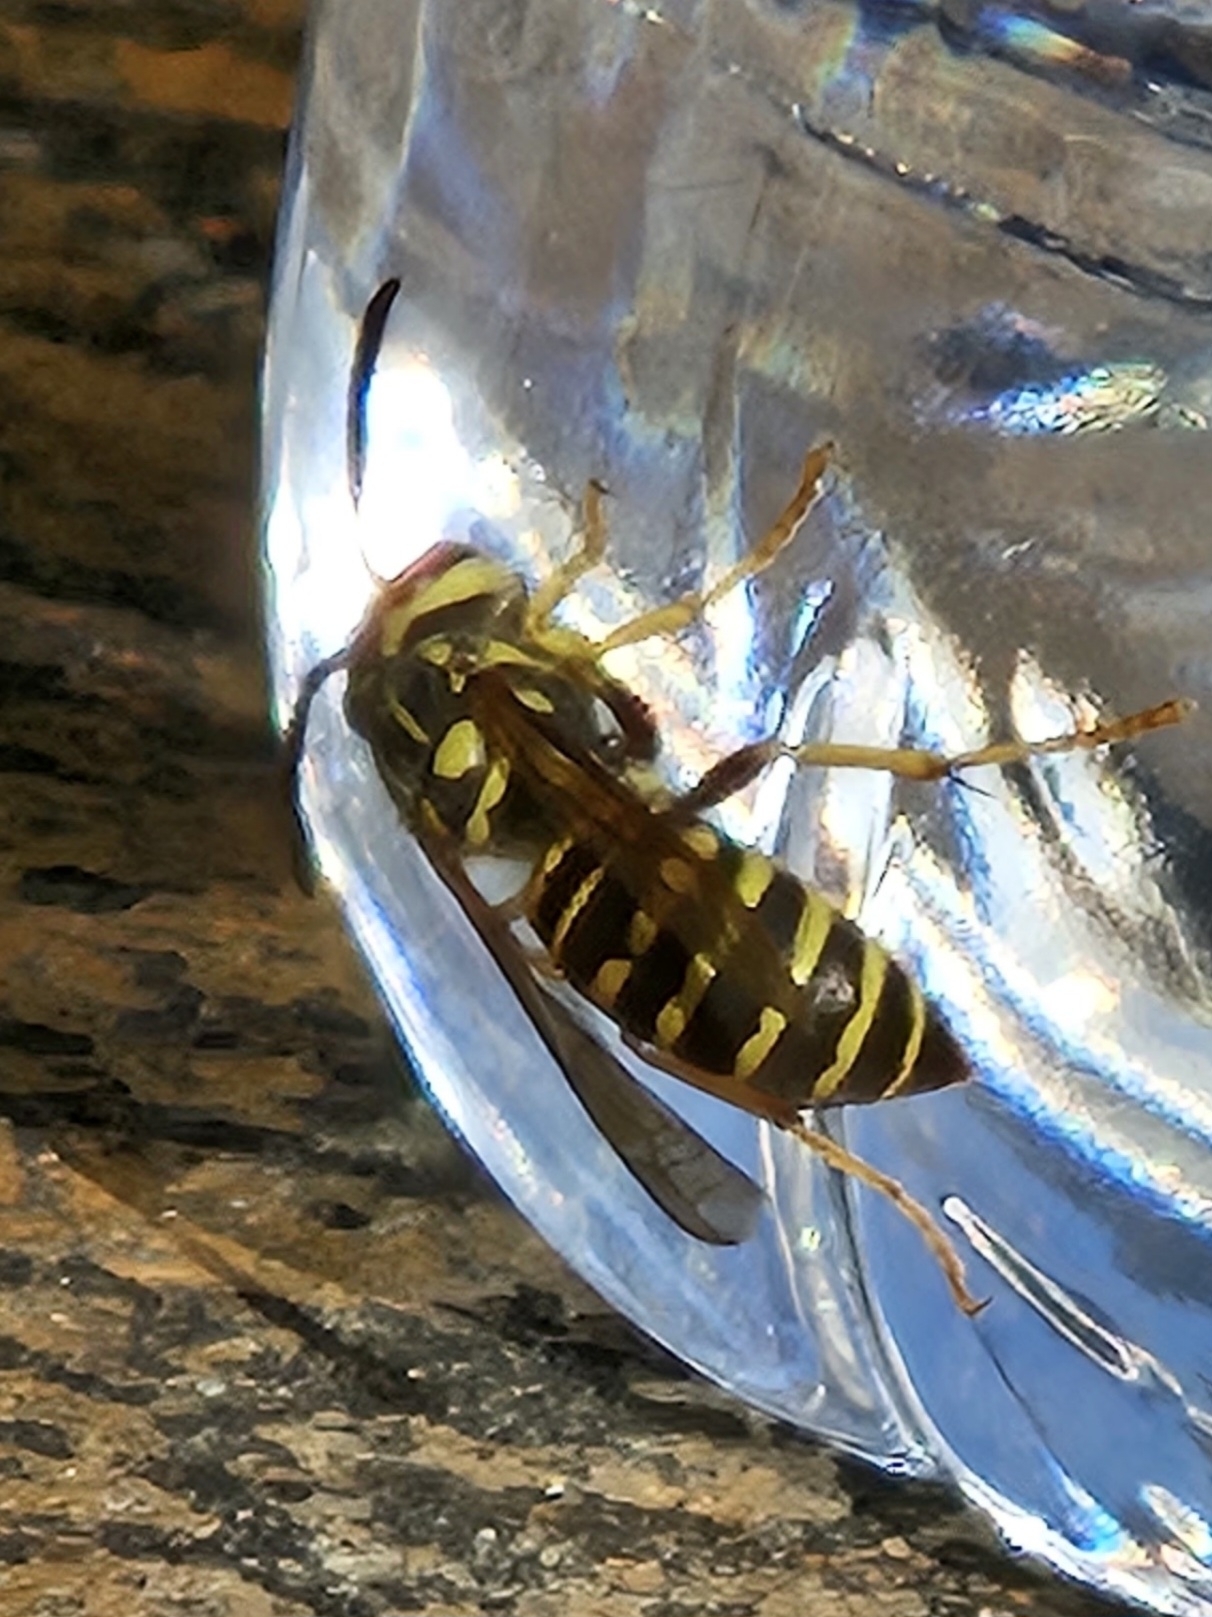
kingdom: Animalia
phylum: Arthropoda
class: Insecta
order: Hymenoptera
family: Vespidae
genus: Vespula
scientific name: Vespula squamosa
